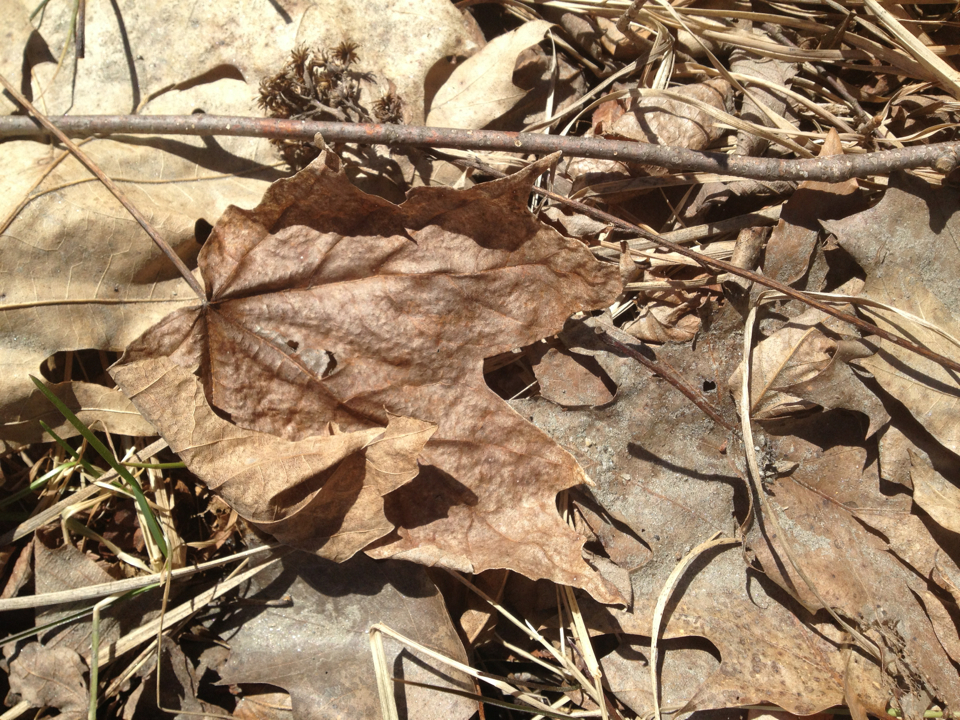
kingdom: Plantae
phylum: Tracheophyta
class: Magnoliopsida
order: Sapindales
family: Sapindaceae
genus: Acer
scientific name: Acer saccharum
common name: Sugar maple
